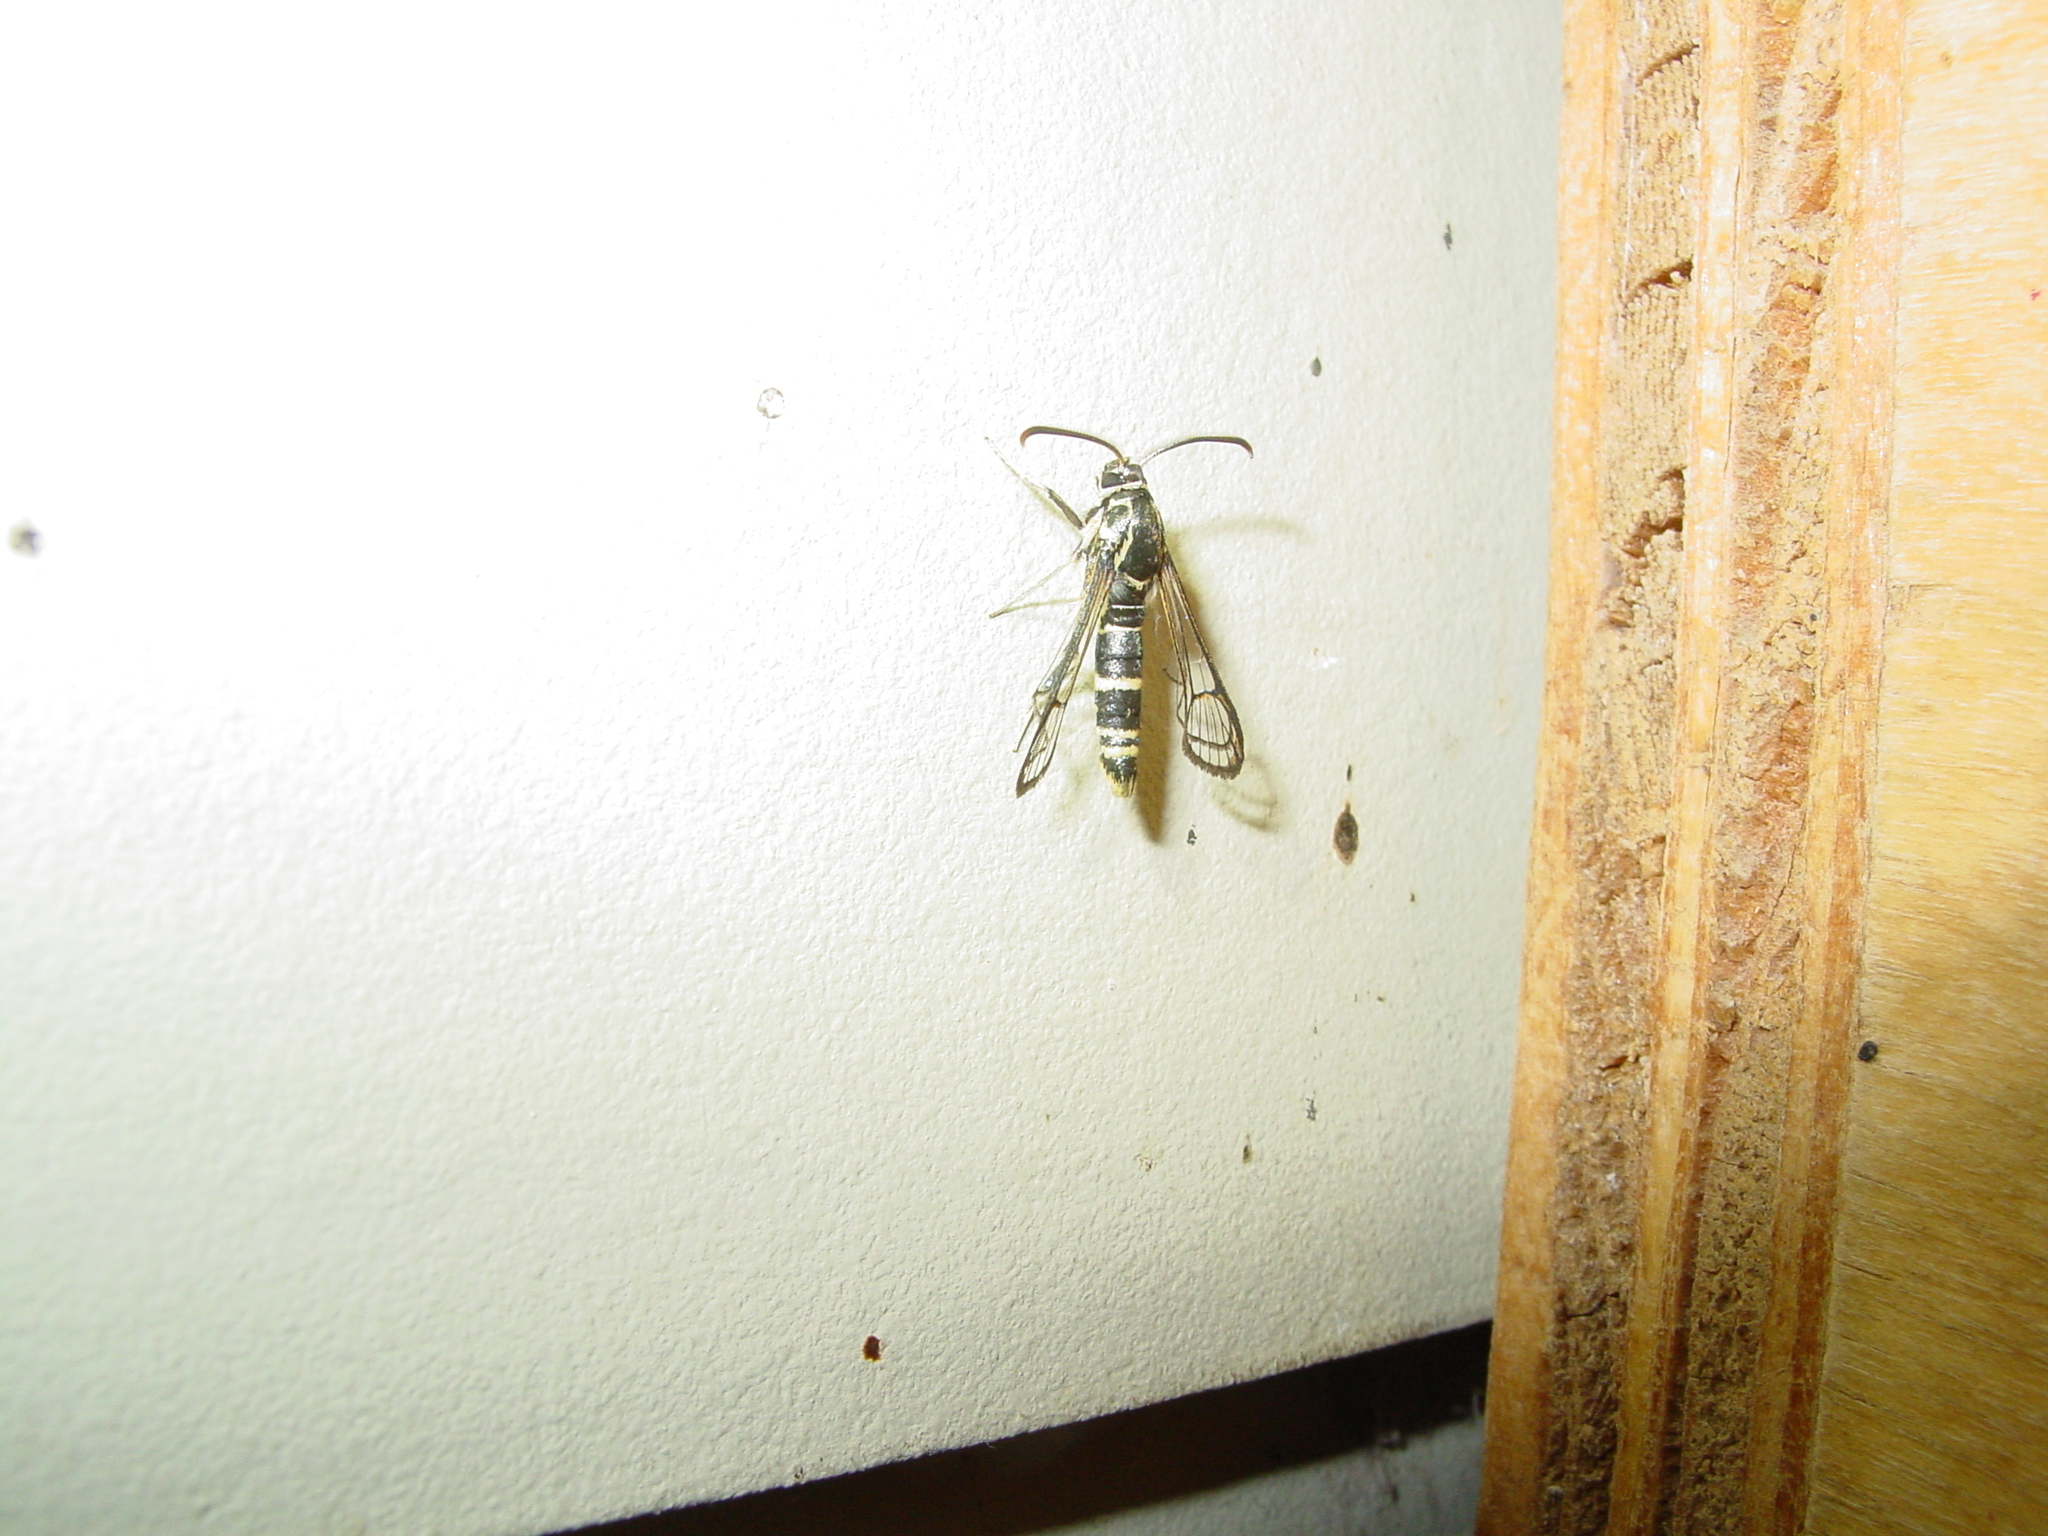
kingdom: Animalia
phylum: Arthropoda
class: Insecta
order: Lepidoptera
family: Sesiidae
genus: Carmenta
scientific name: Carmenta wellerae
